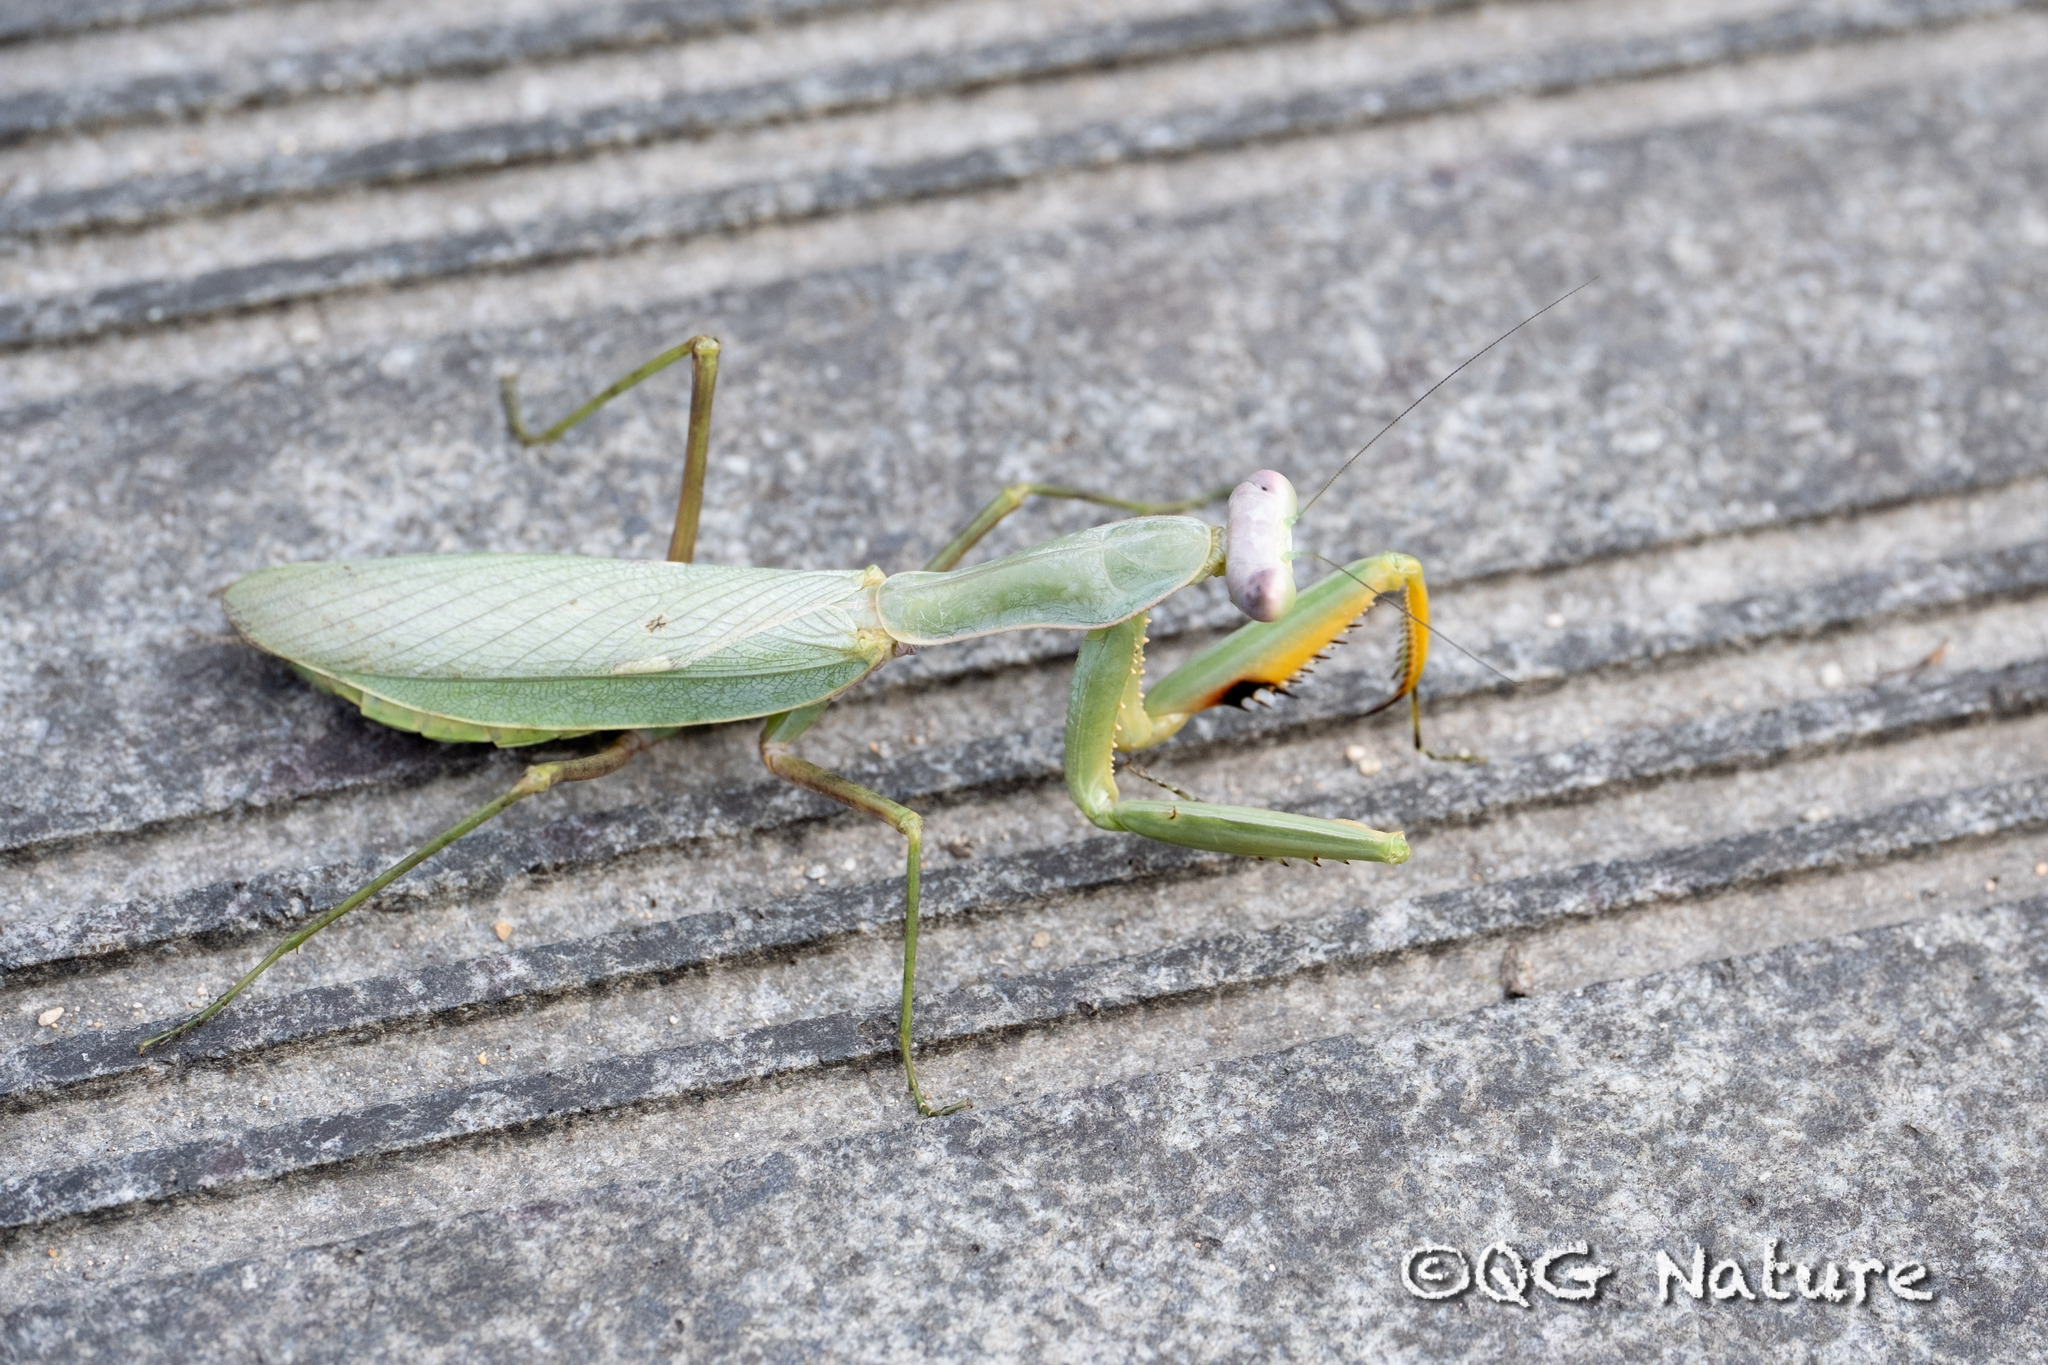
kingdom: Animalia
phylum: Arthropoda
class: Insecta
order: Mantodea
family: Mantidae
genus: Hierodula
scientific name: Hierodula maculata
